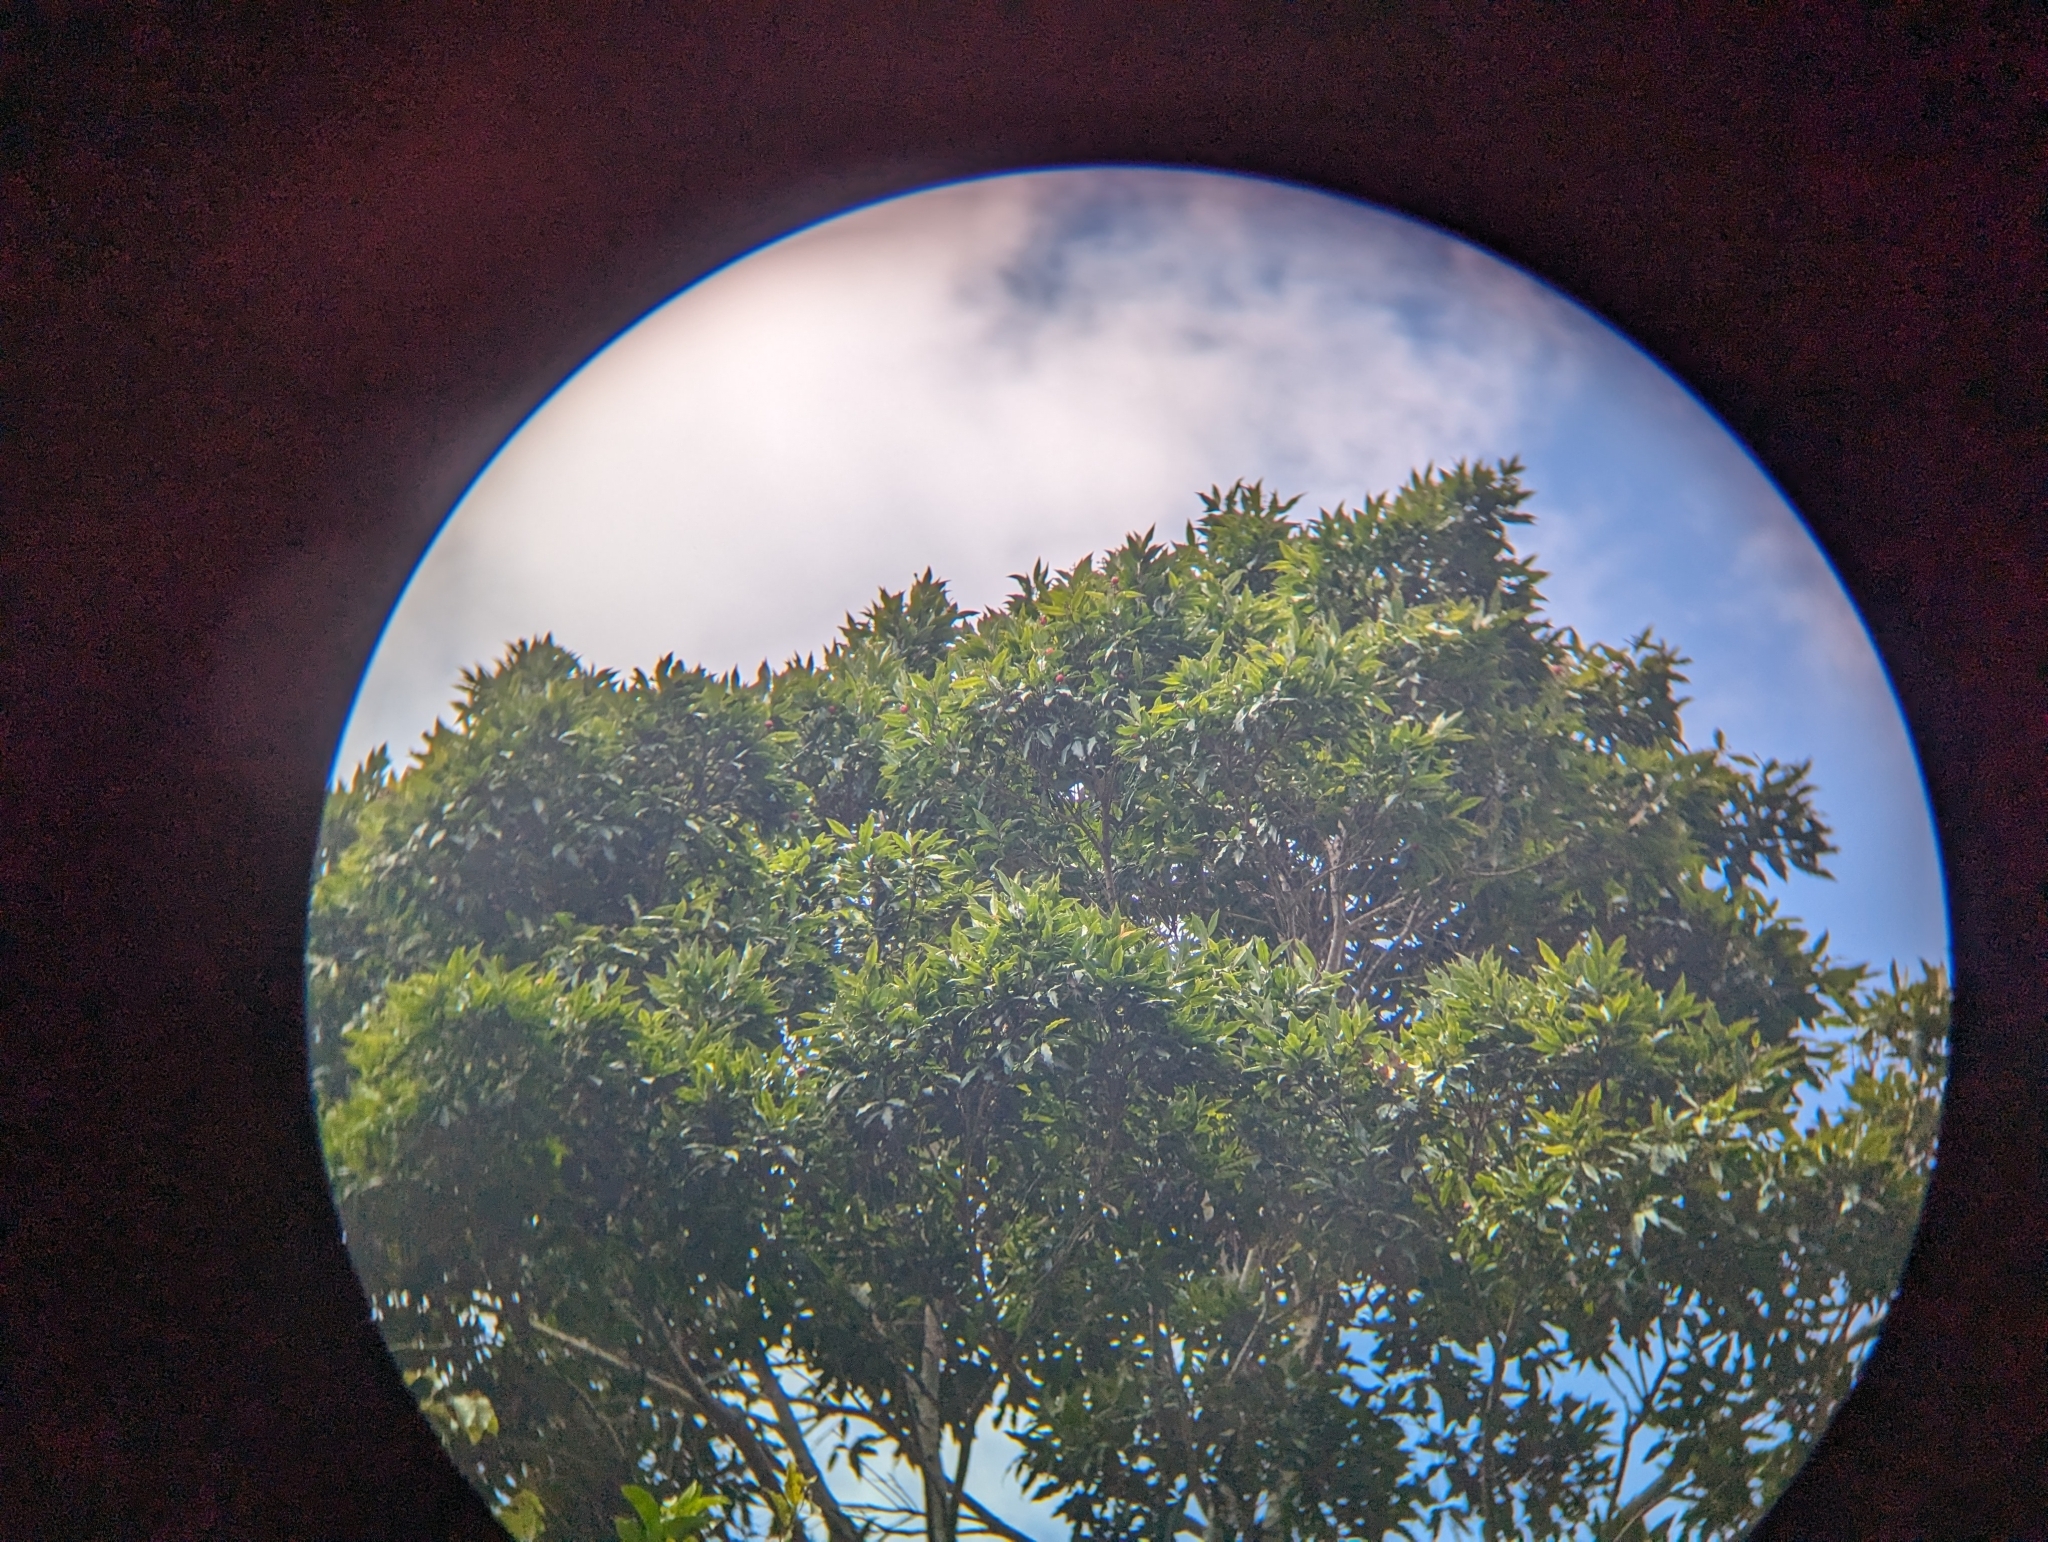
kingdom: Plantae
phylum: Tracheophyta
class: Magnoliopsida
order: Myrtales
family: Myrtaceae
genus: Syzygium
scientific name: Syzygium ingens
